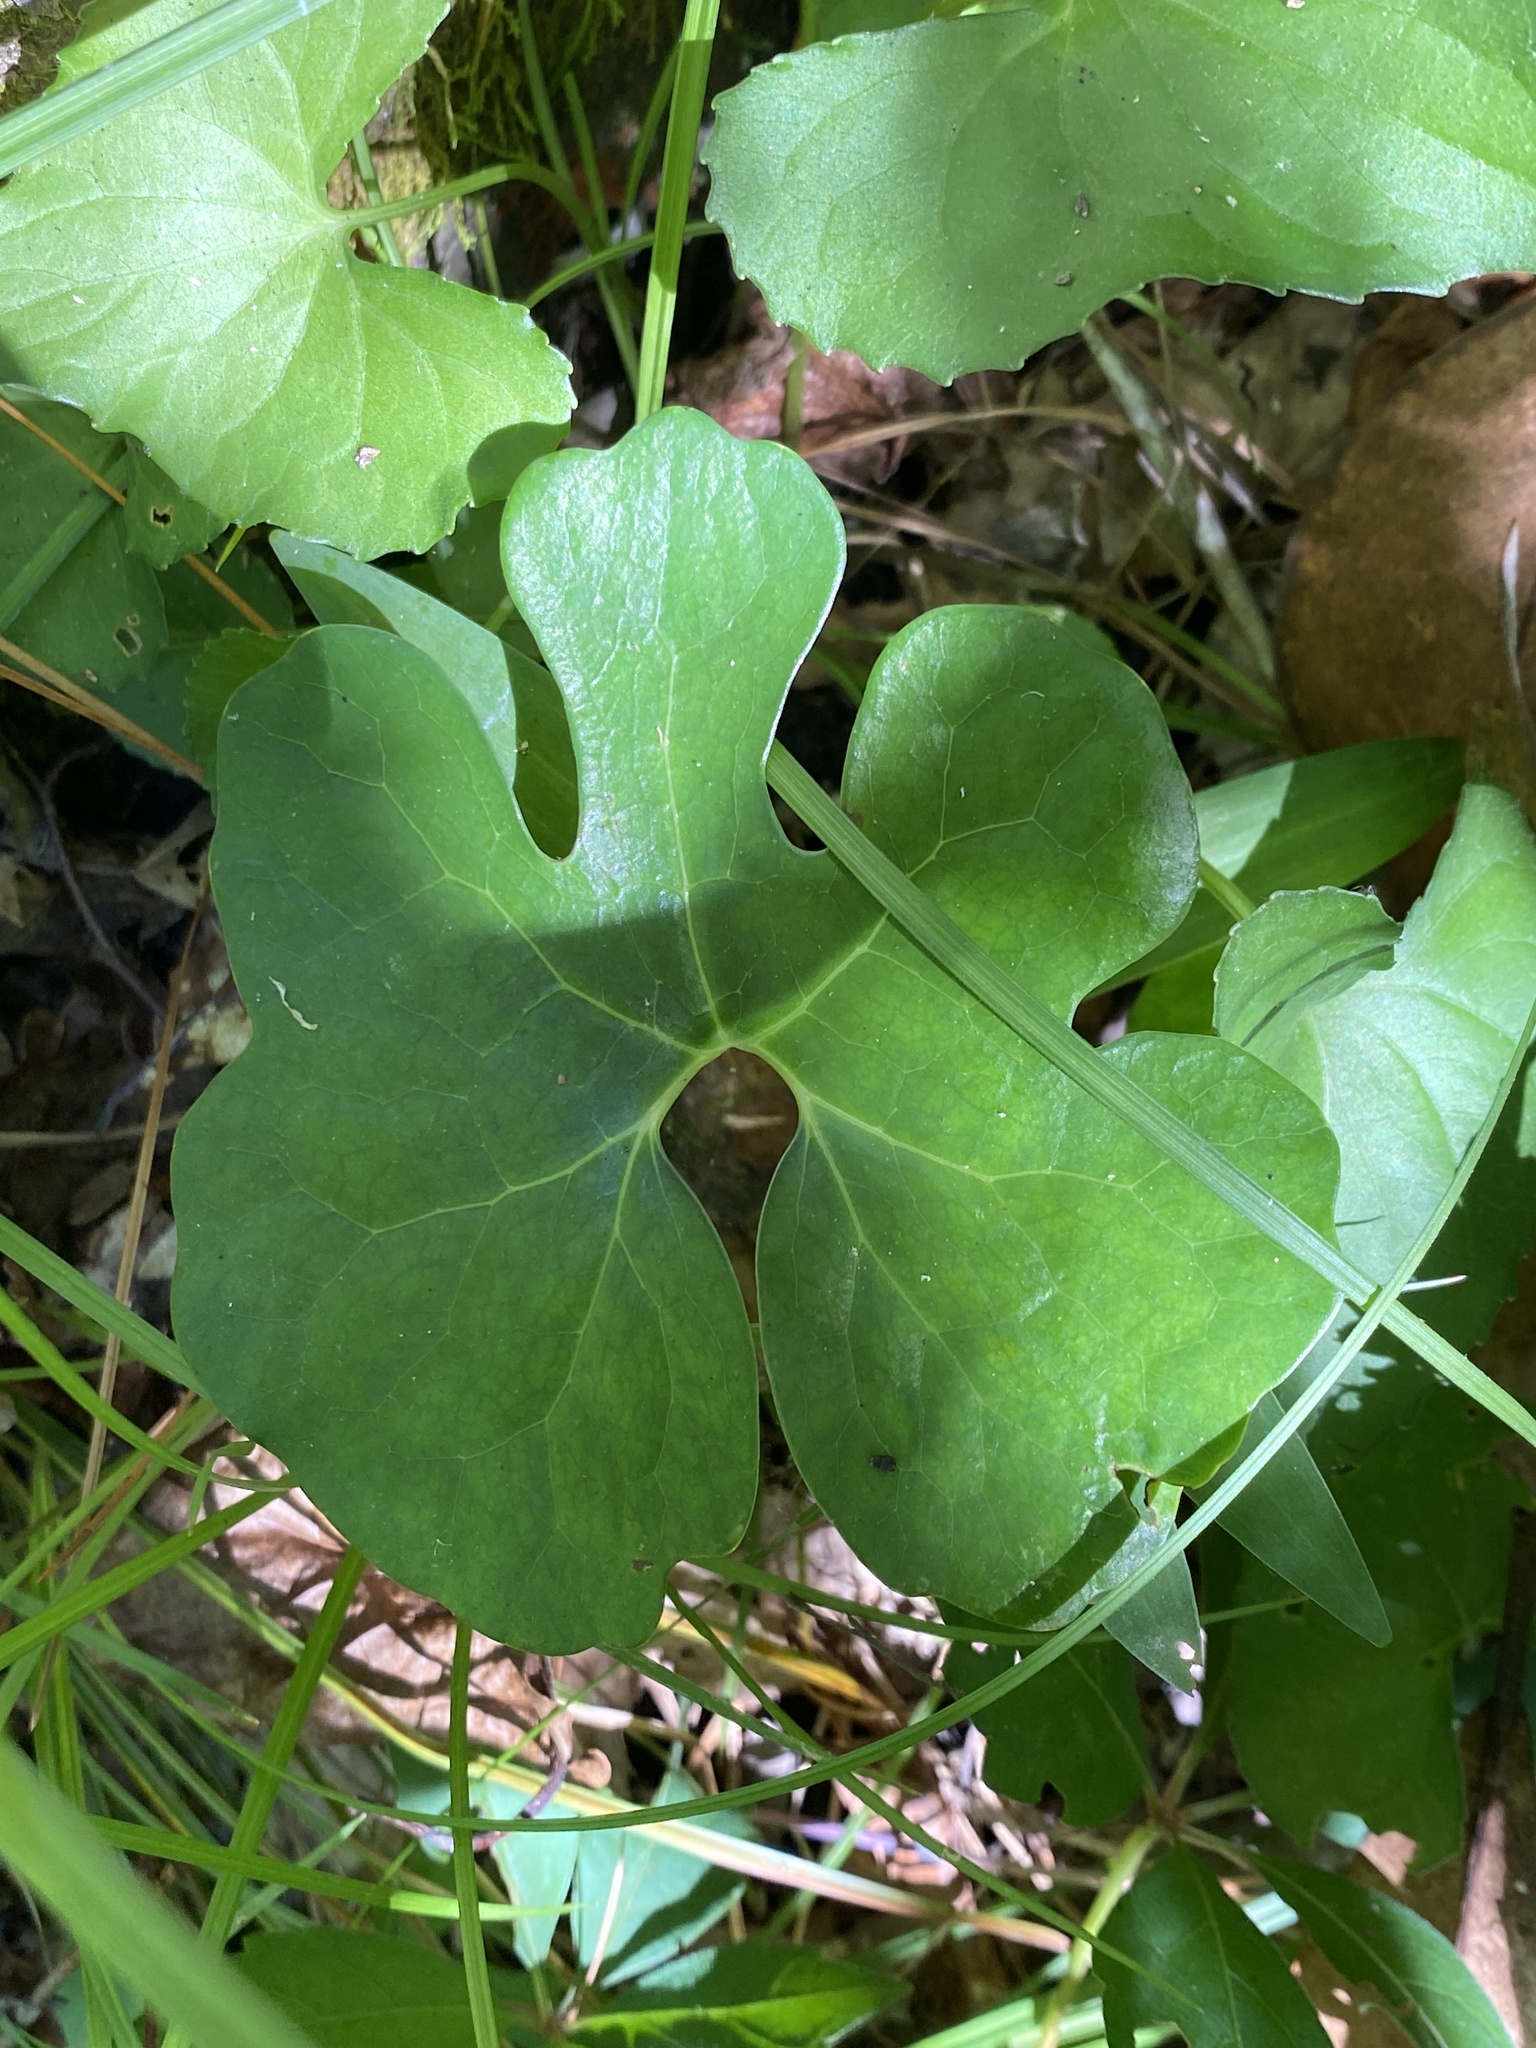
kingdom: Plantae
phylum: Tracheophyta
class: Magnoliopsida
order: Ranunculales
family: Papaveraceae
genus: Sanguinaria
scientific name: Sanguinaria canadensis
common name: Bloodroot
